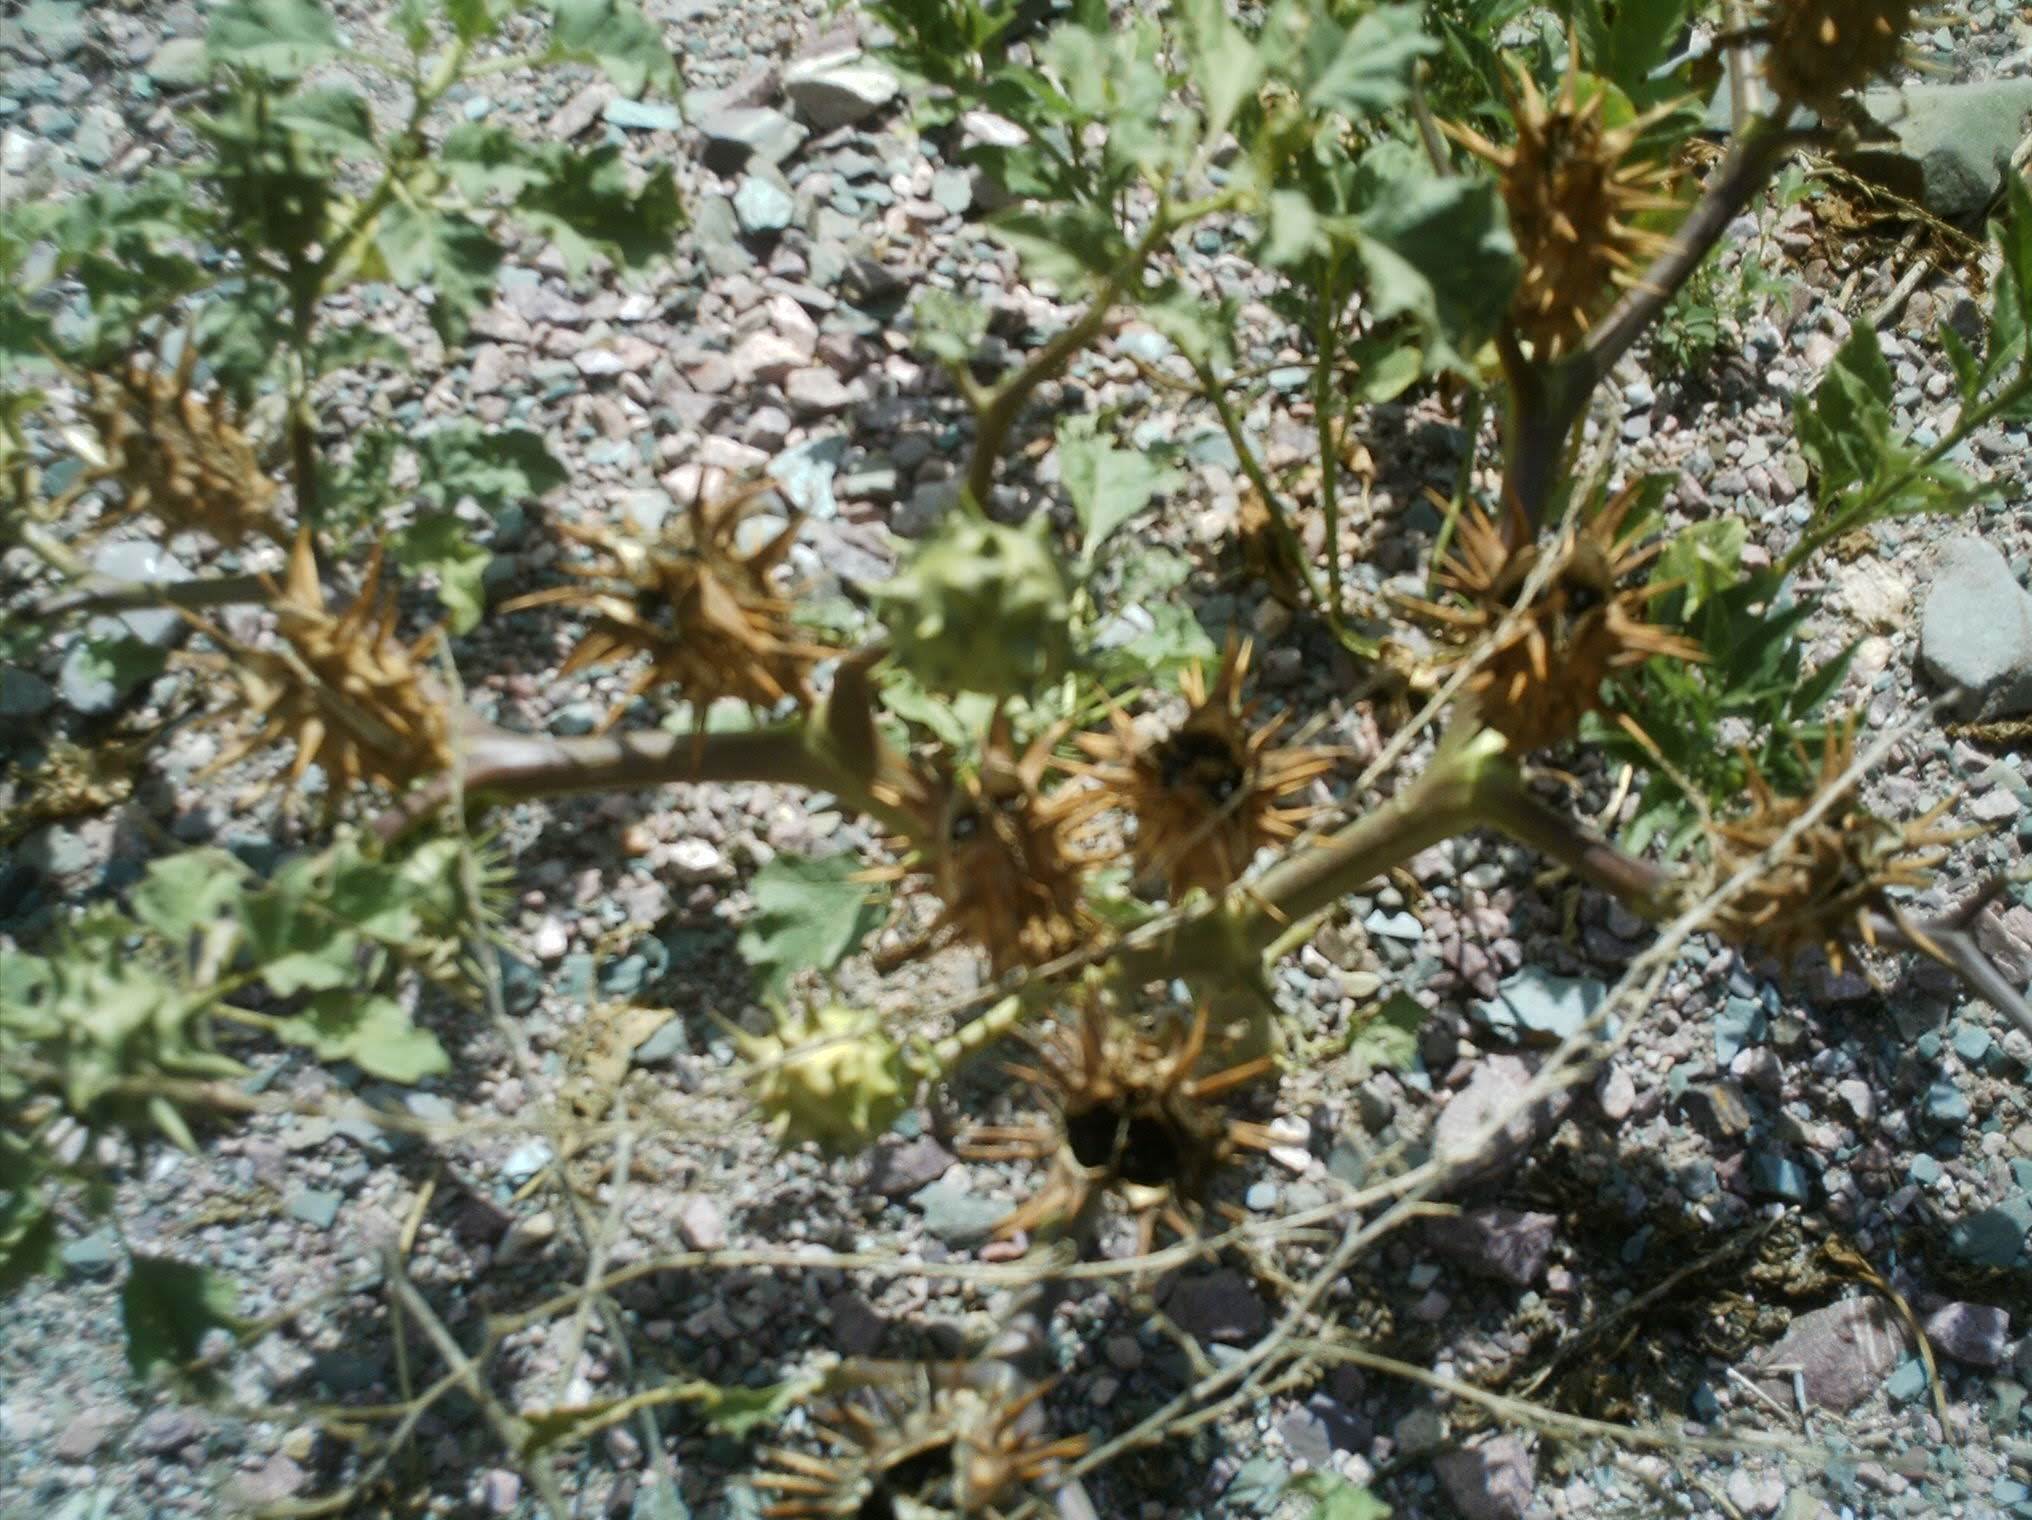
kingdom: Plantae
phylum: Tracheophyta
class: Magnoliopsida
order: Solanales
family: Solanaceae
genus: Datura
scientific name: Datura ferox
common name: Angel's-trumpets
